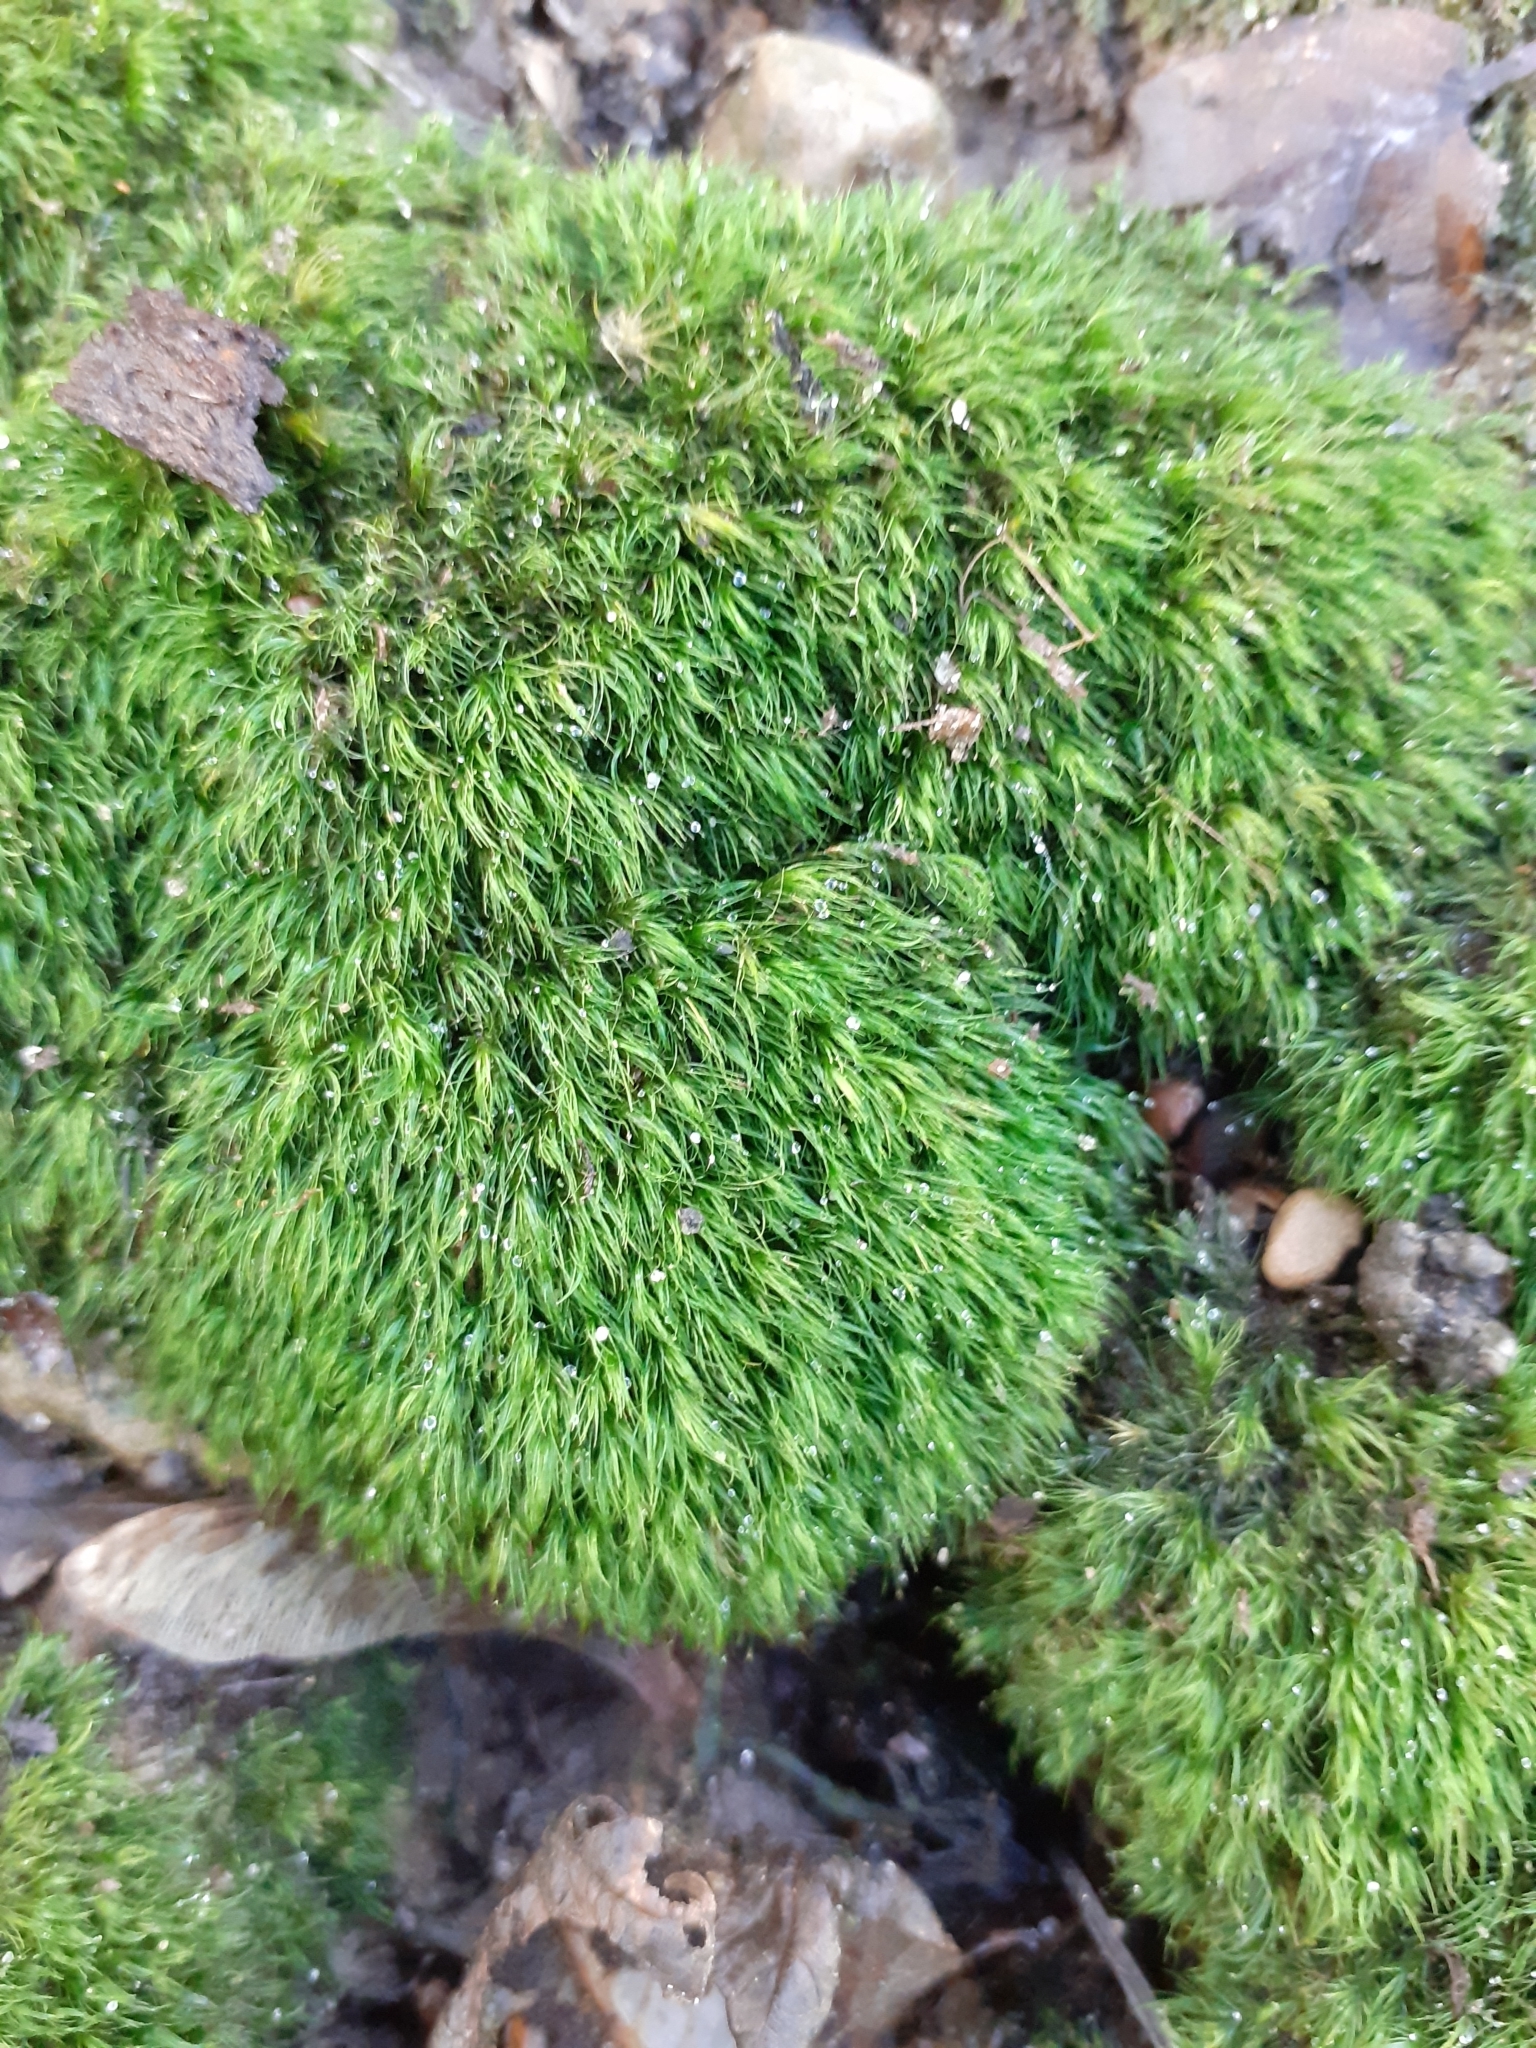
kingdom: Plantae
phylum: Bryophyta
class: Bryopsida
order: Dicranales
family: Dicranellaceae
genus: Dicranella
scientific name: Dicranella heteromalla
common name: Silky forklet moss
